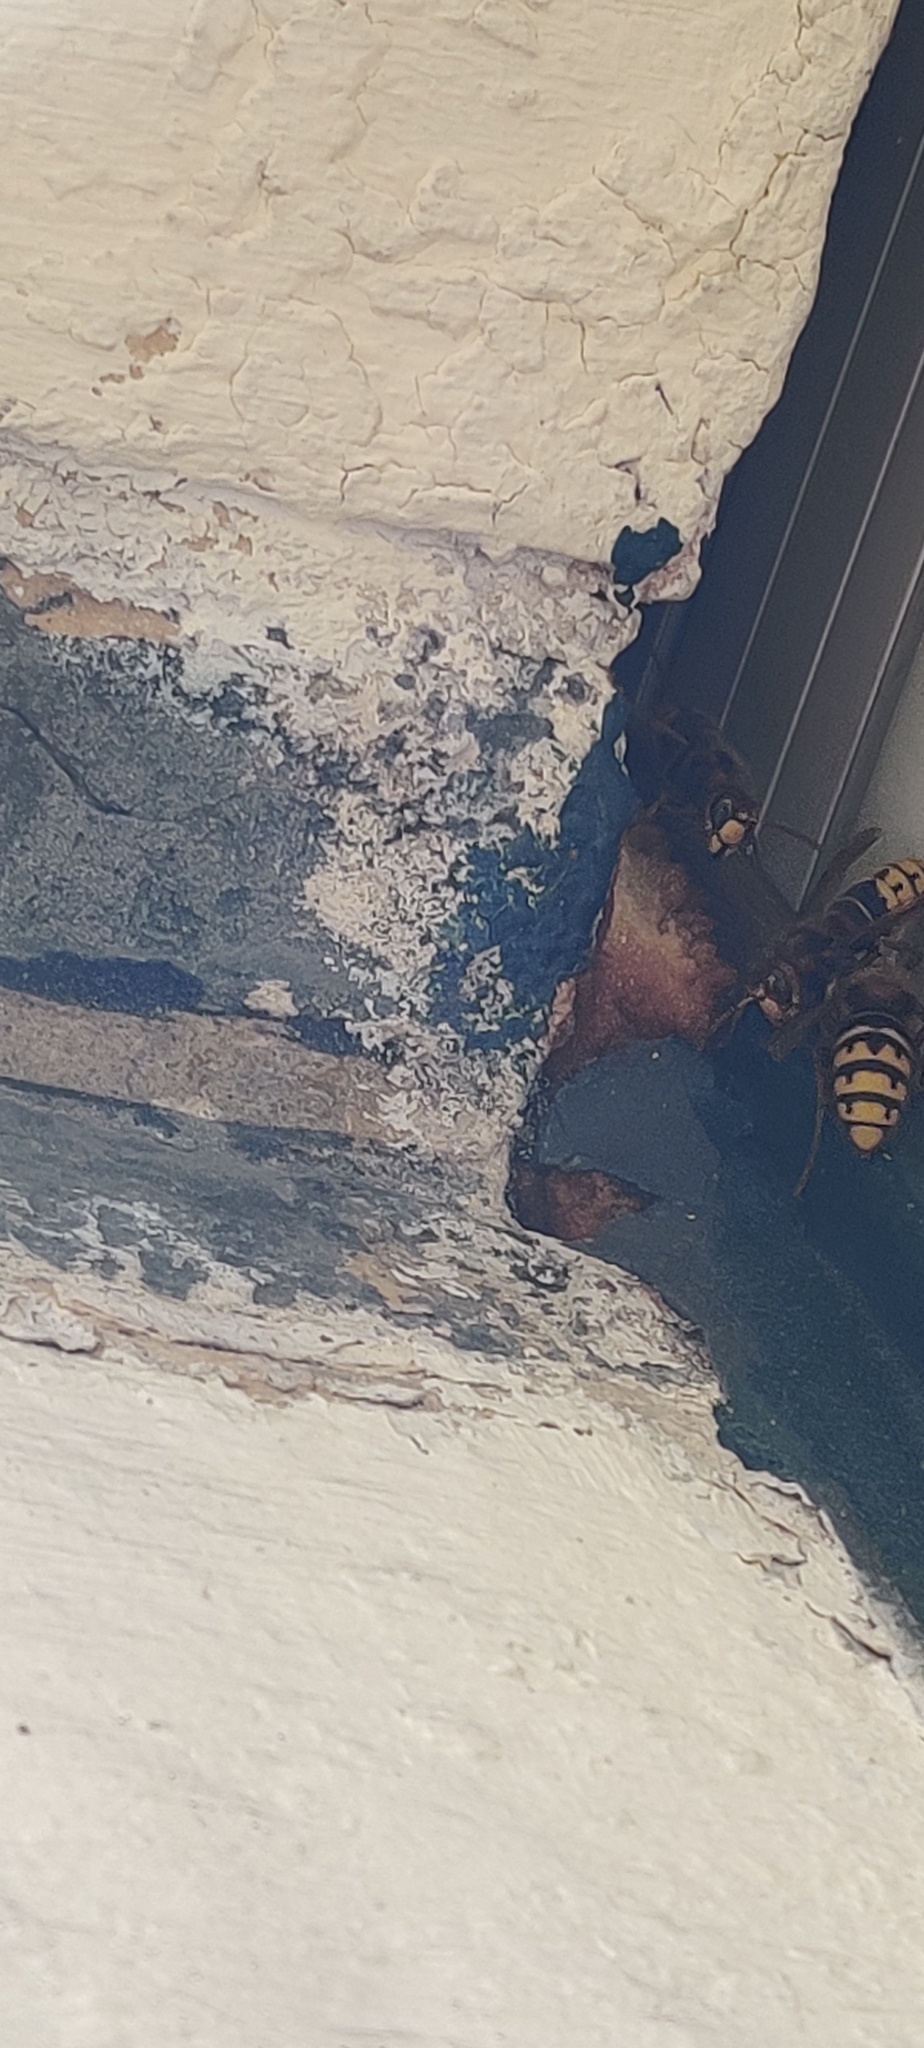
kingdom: Animalia
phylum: Arthropoda
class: Insecta
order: Hymenoptera
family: Vespidae
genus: Vespa
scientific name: Vespa crabro
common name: Hornet
